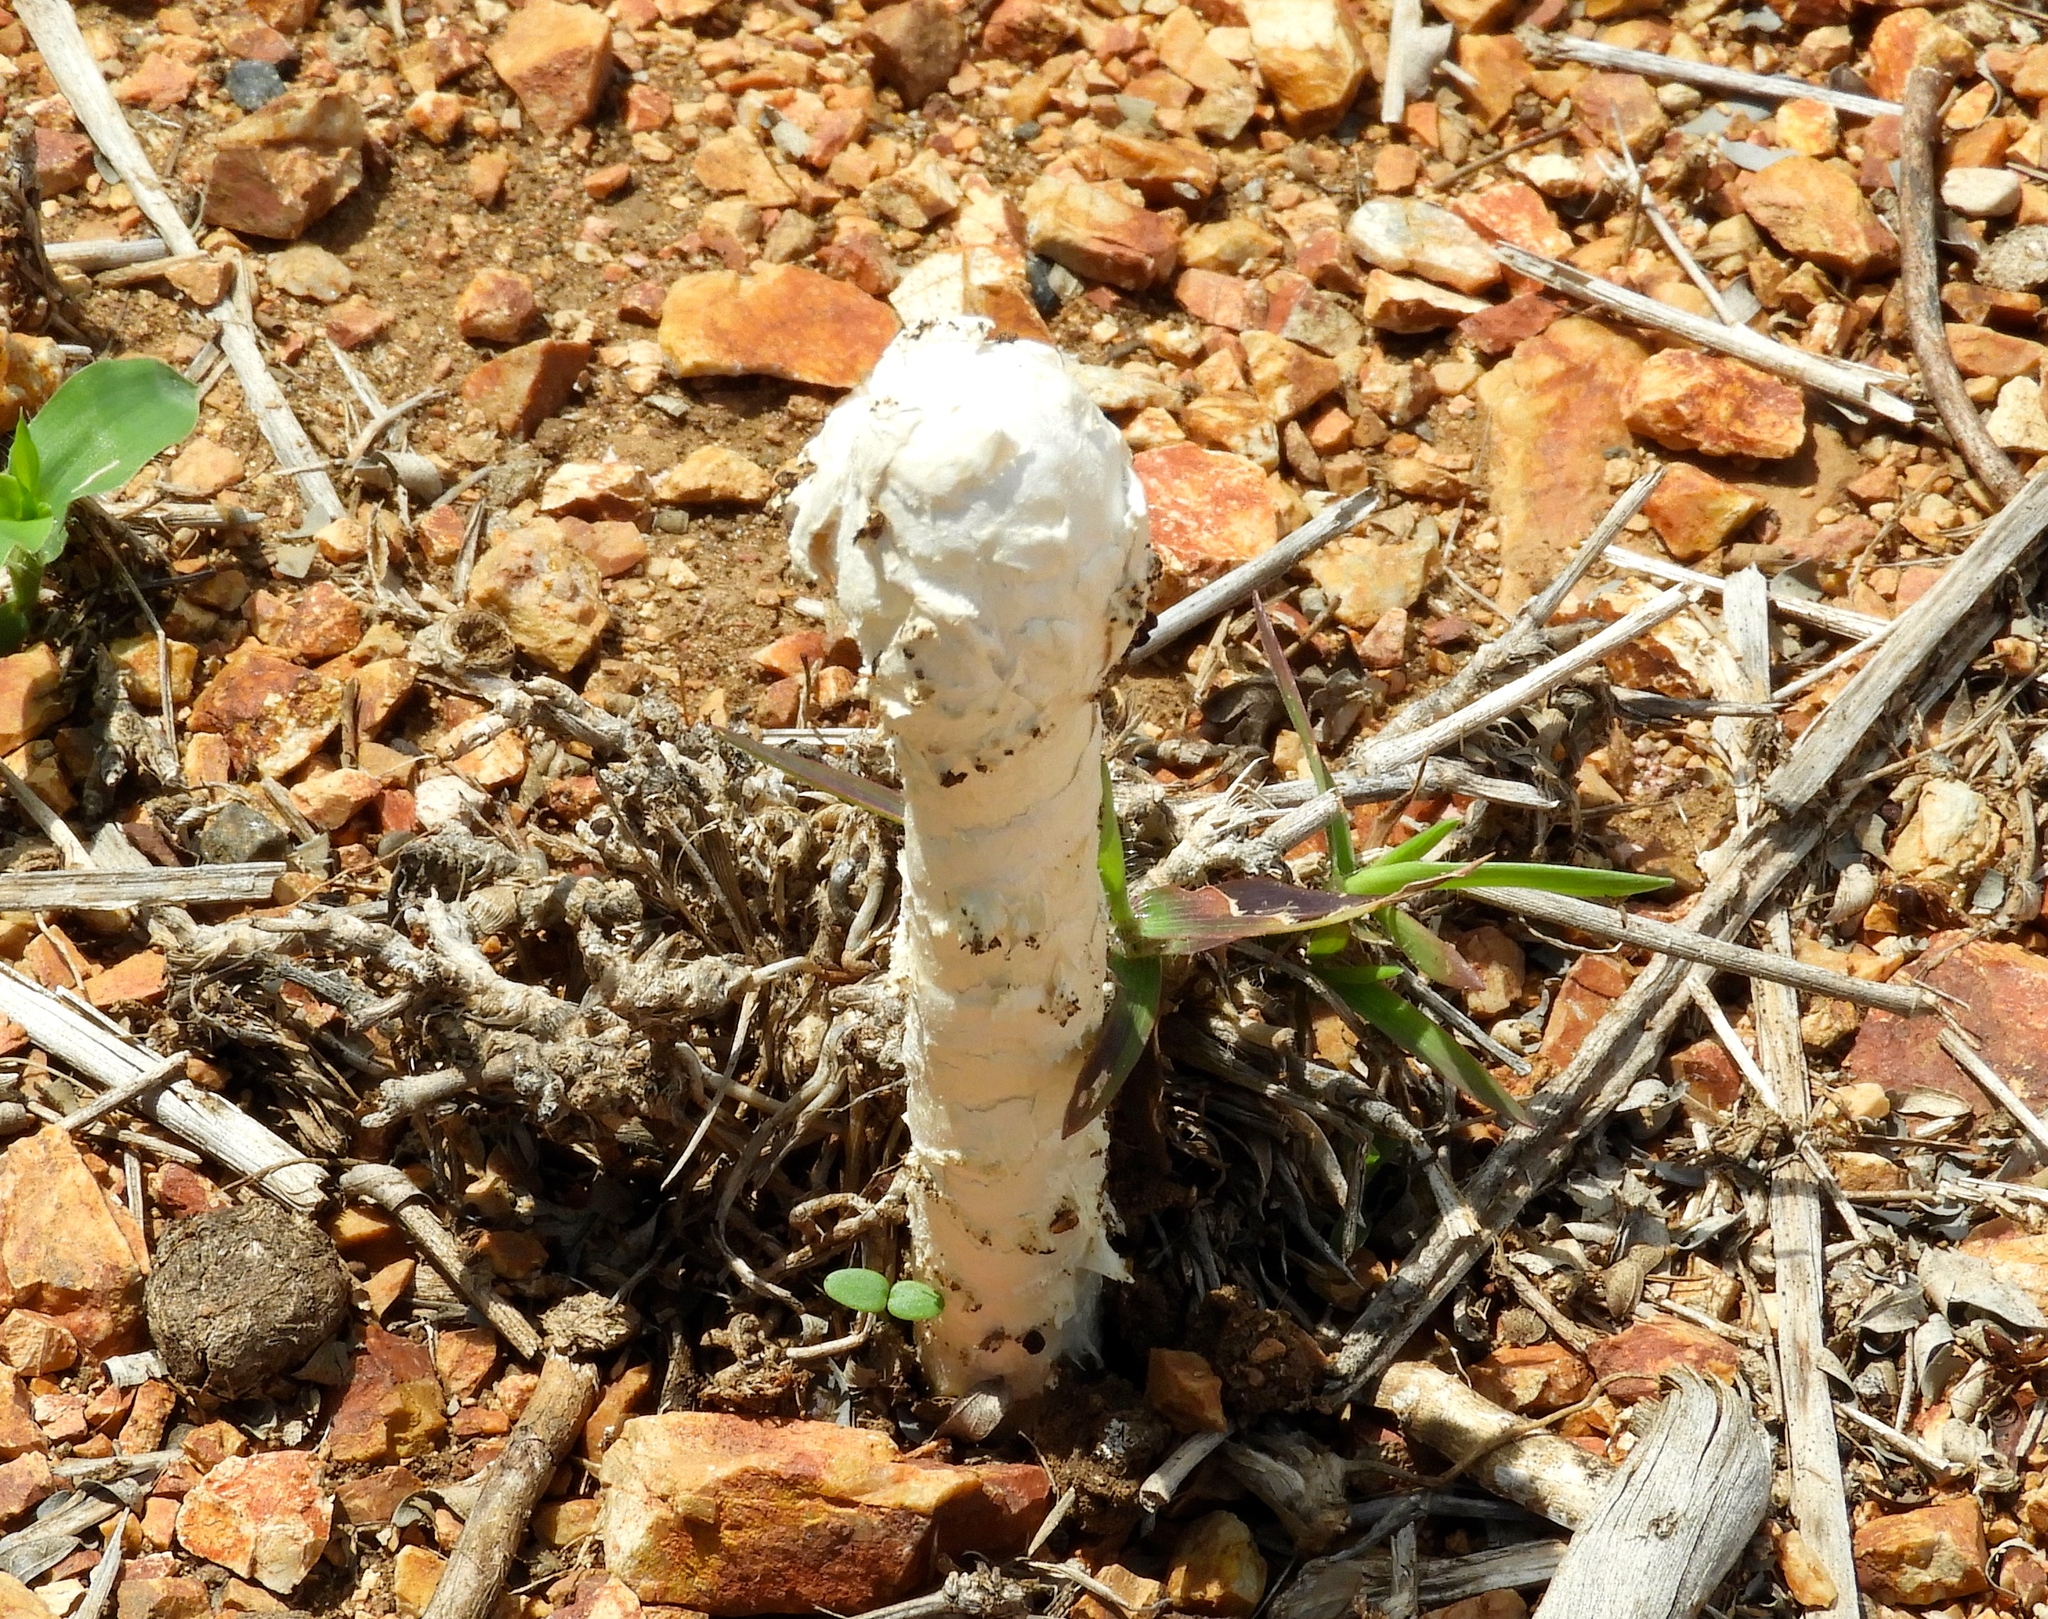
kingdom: Fungi
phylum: Basidiomycota
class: Agaricomycetes
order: Agaricales
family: Agaricaceae
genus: Podaxis
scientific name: Podaxis
